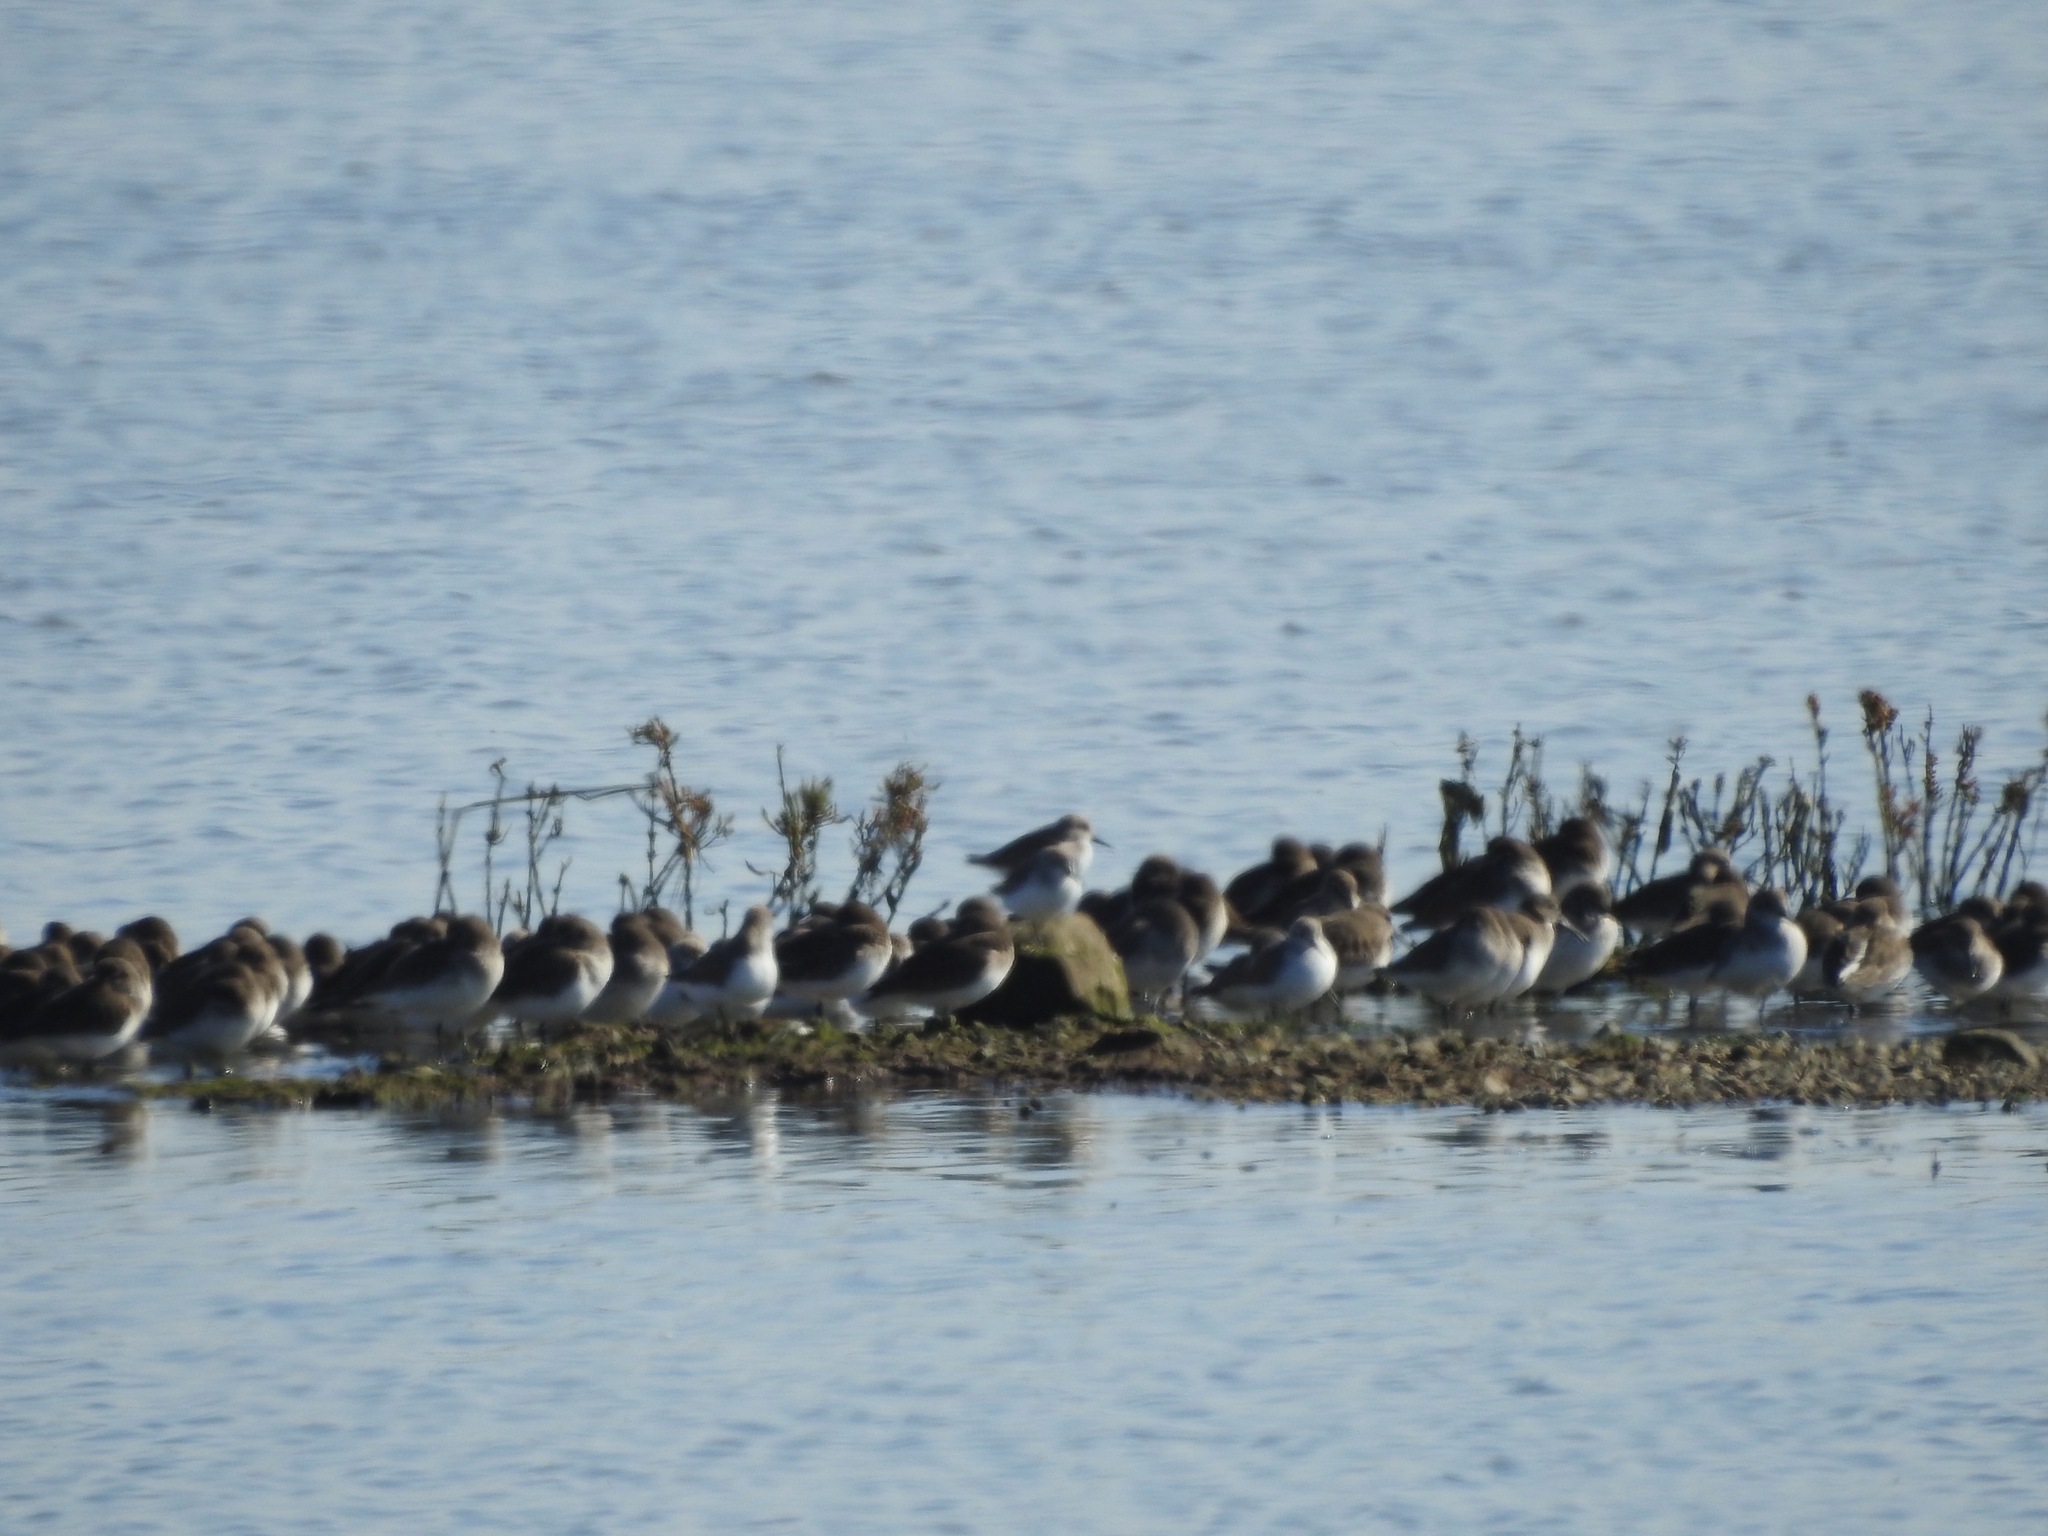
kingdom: Animalia
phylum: Chordata
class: Aves
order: Charadriiformes
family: Scolopacidae
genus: Calidris
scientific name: Calidris alpina
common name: Dunlin
